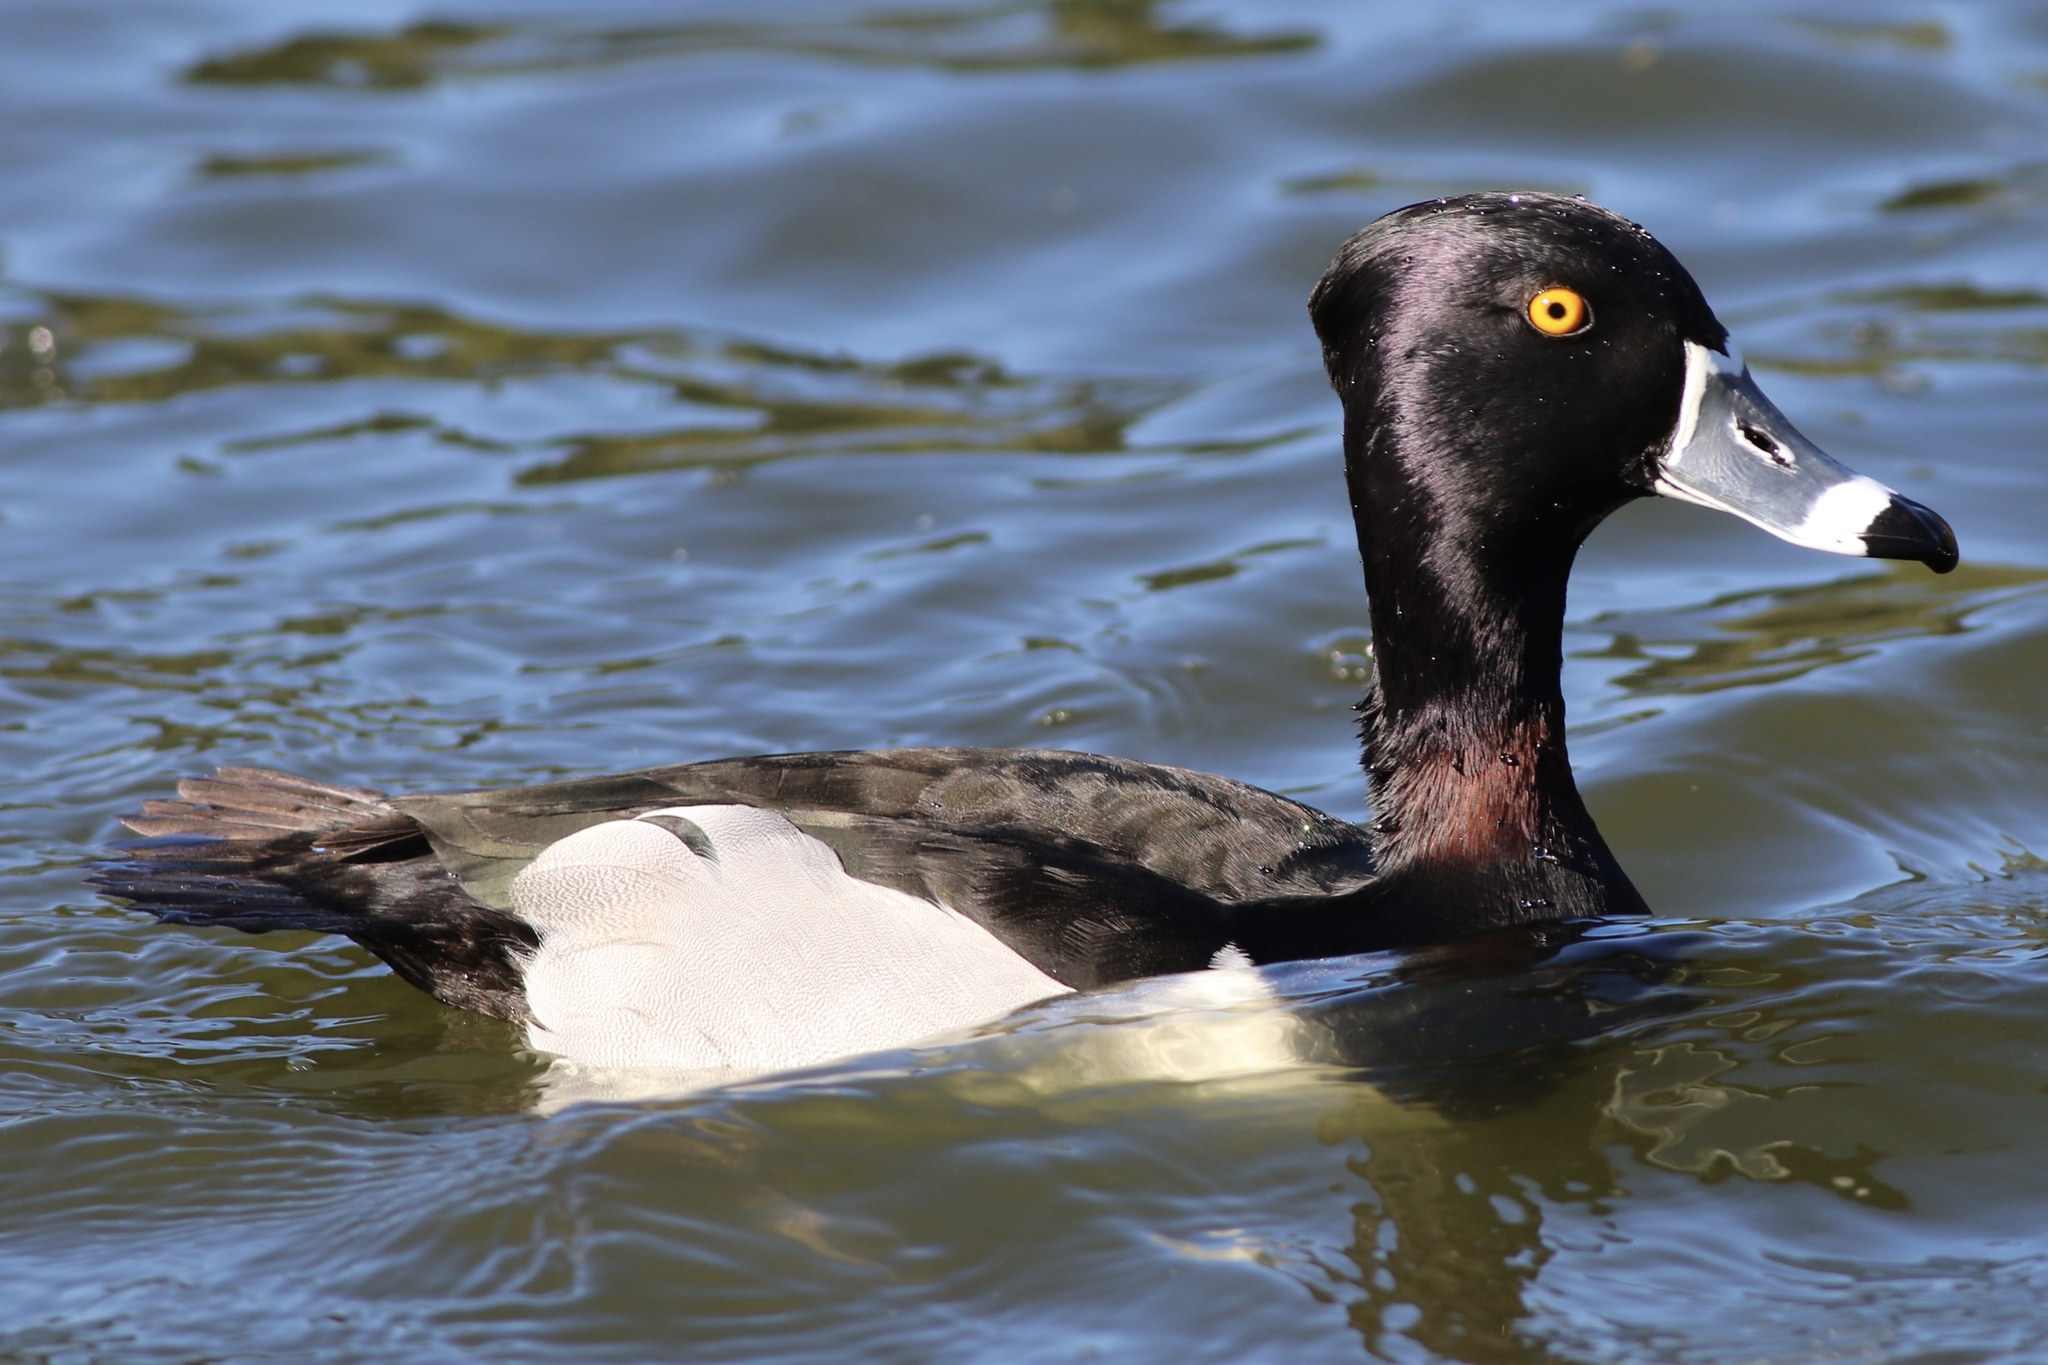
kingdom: Animalia
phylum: Chordata
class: Aves
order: Anseriformes
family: Anatidae
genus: Aythya
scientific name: Aythya collaris
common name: Ring-necked duck
